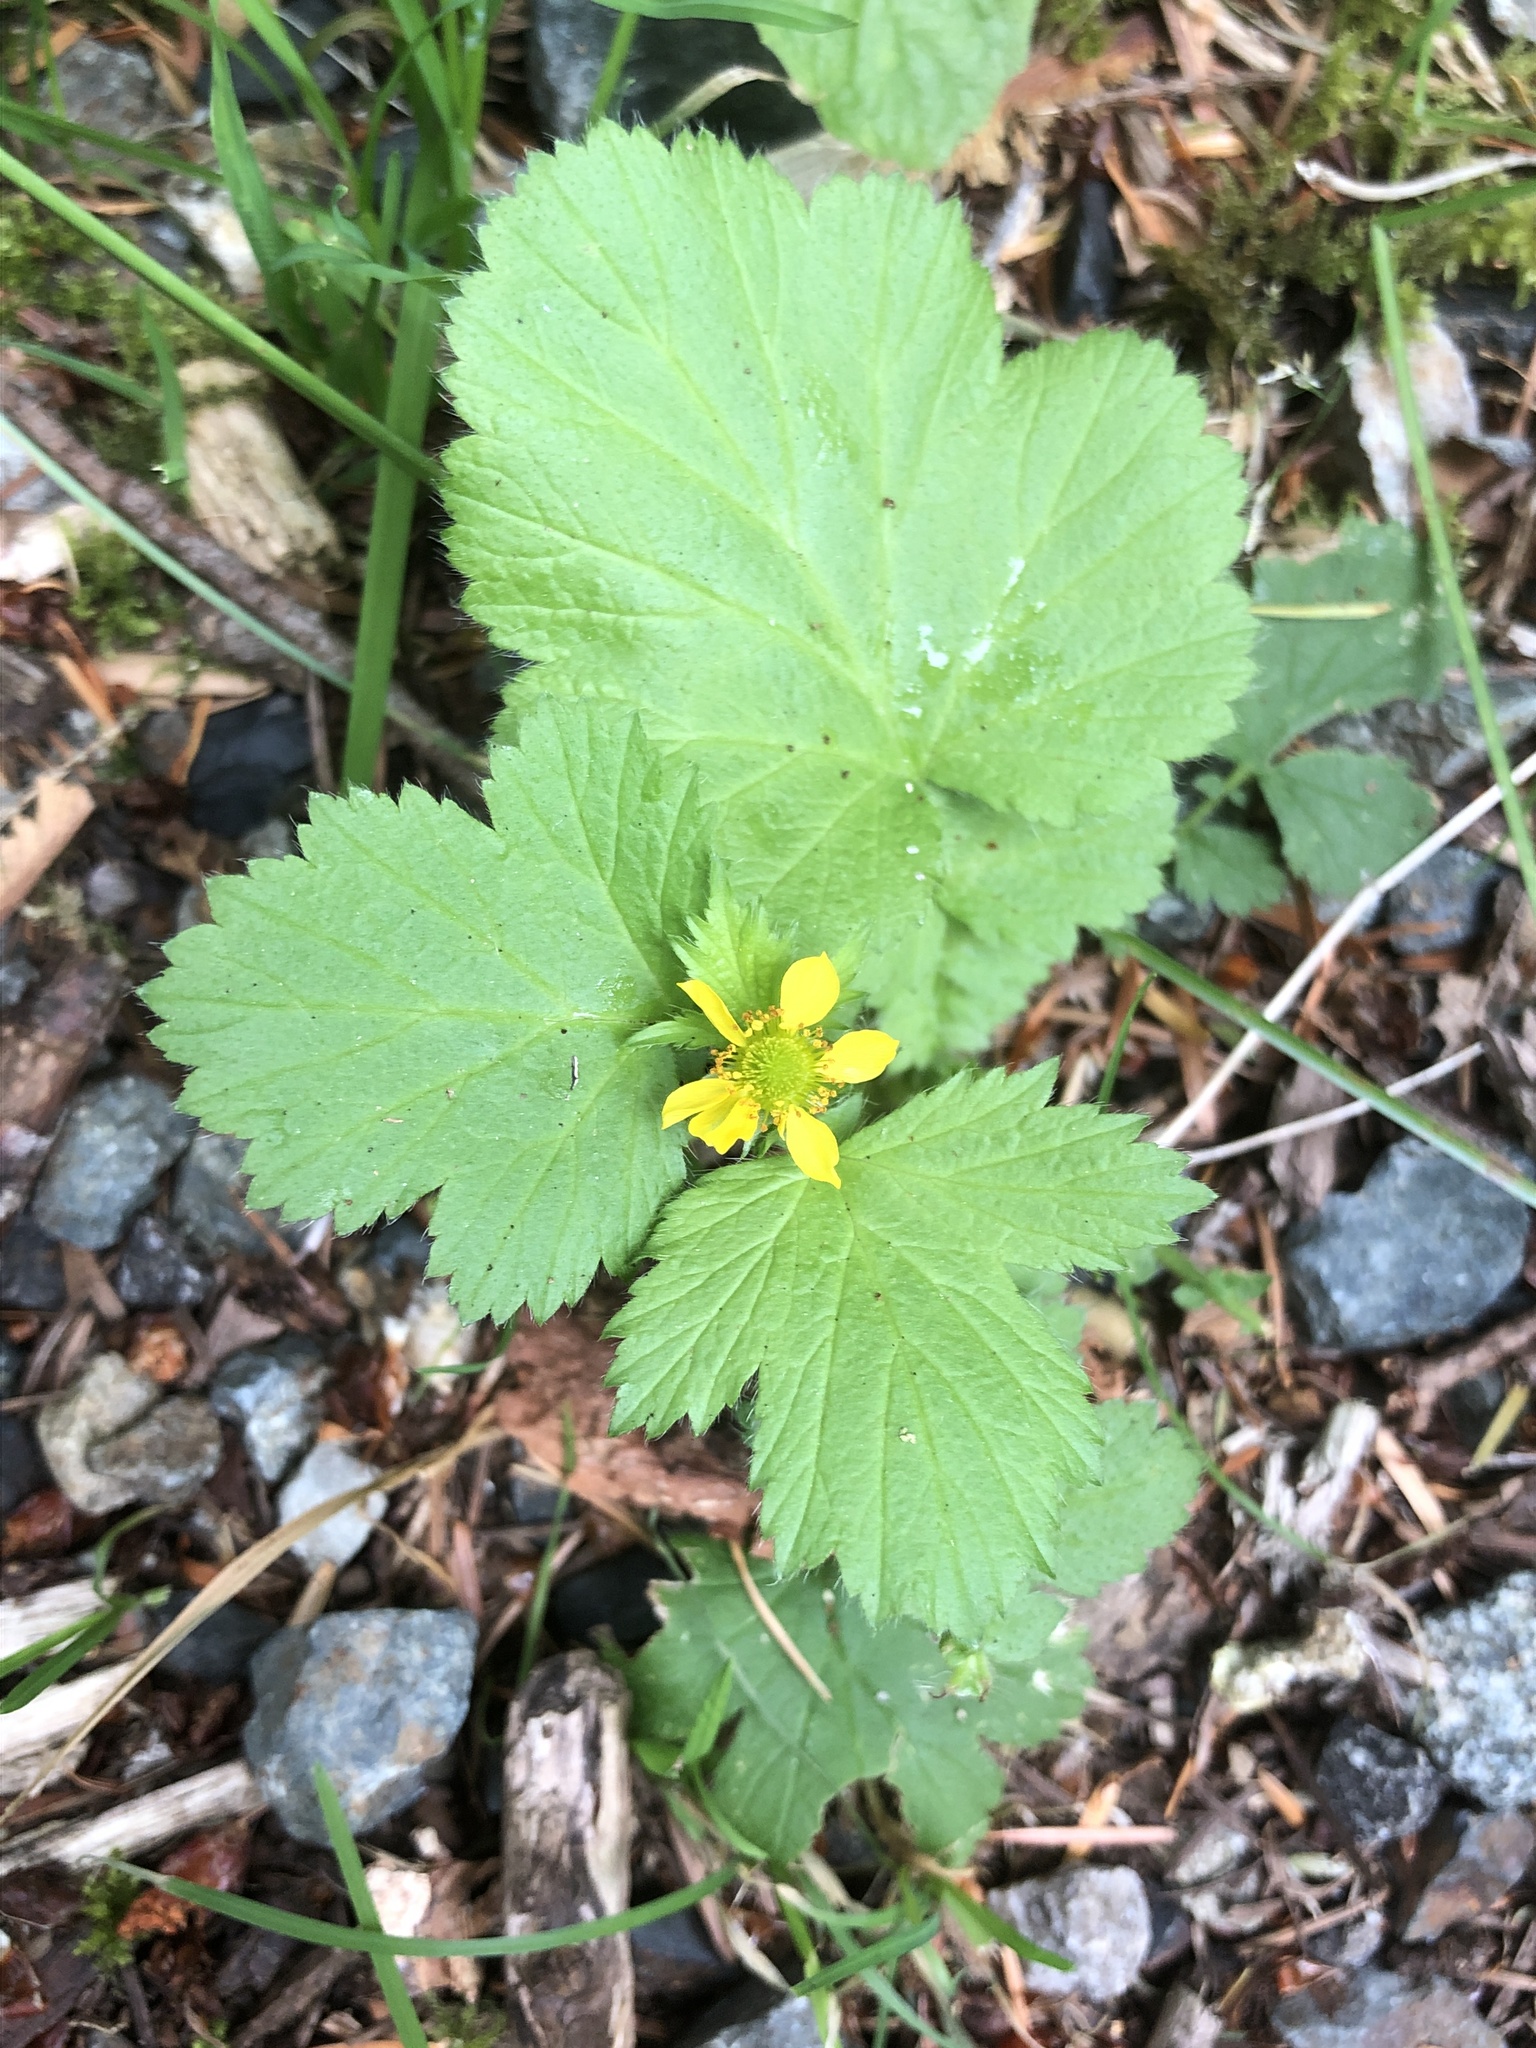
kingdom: Plantae
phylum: Tracheophyta
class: Magnoliopsida
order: Rosales
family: Rosaceae
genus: Geum
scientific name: Geum macrophyllum
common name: Large-leaved avens
